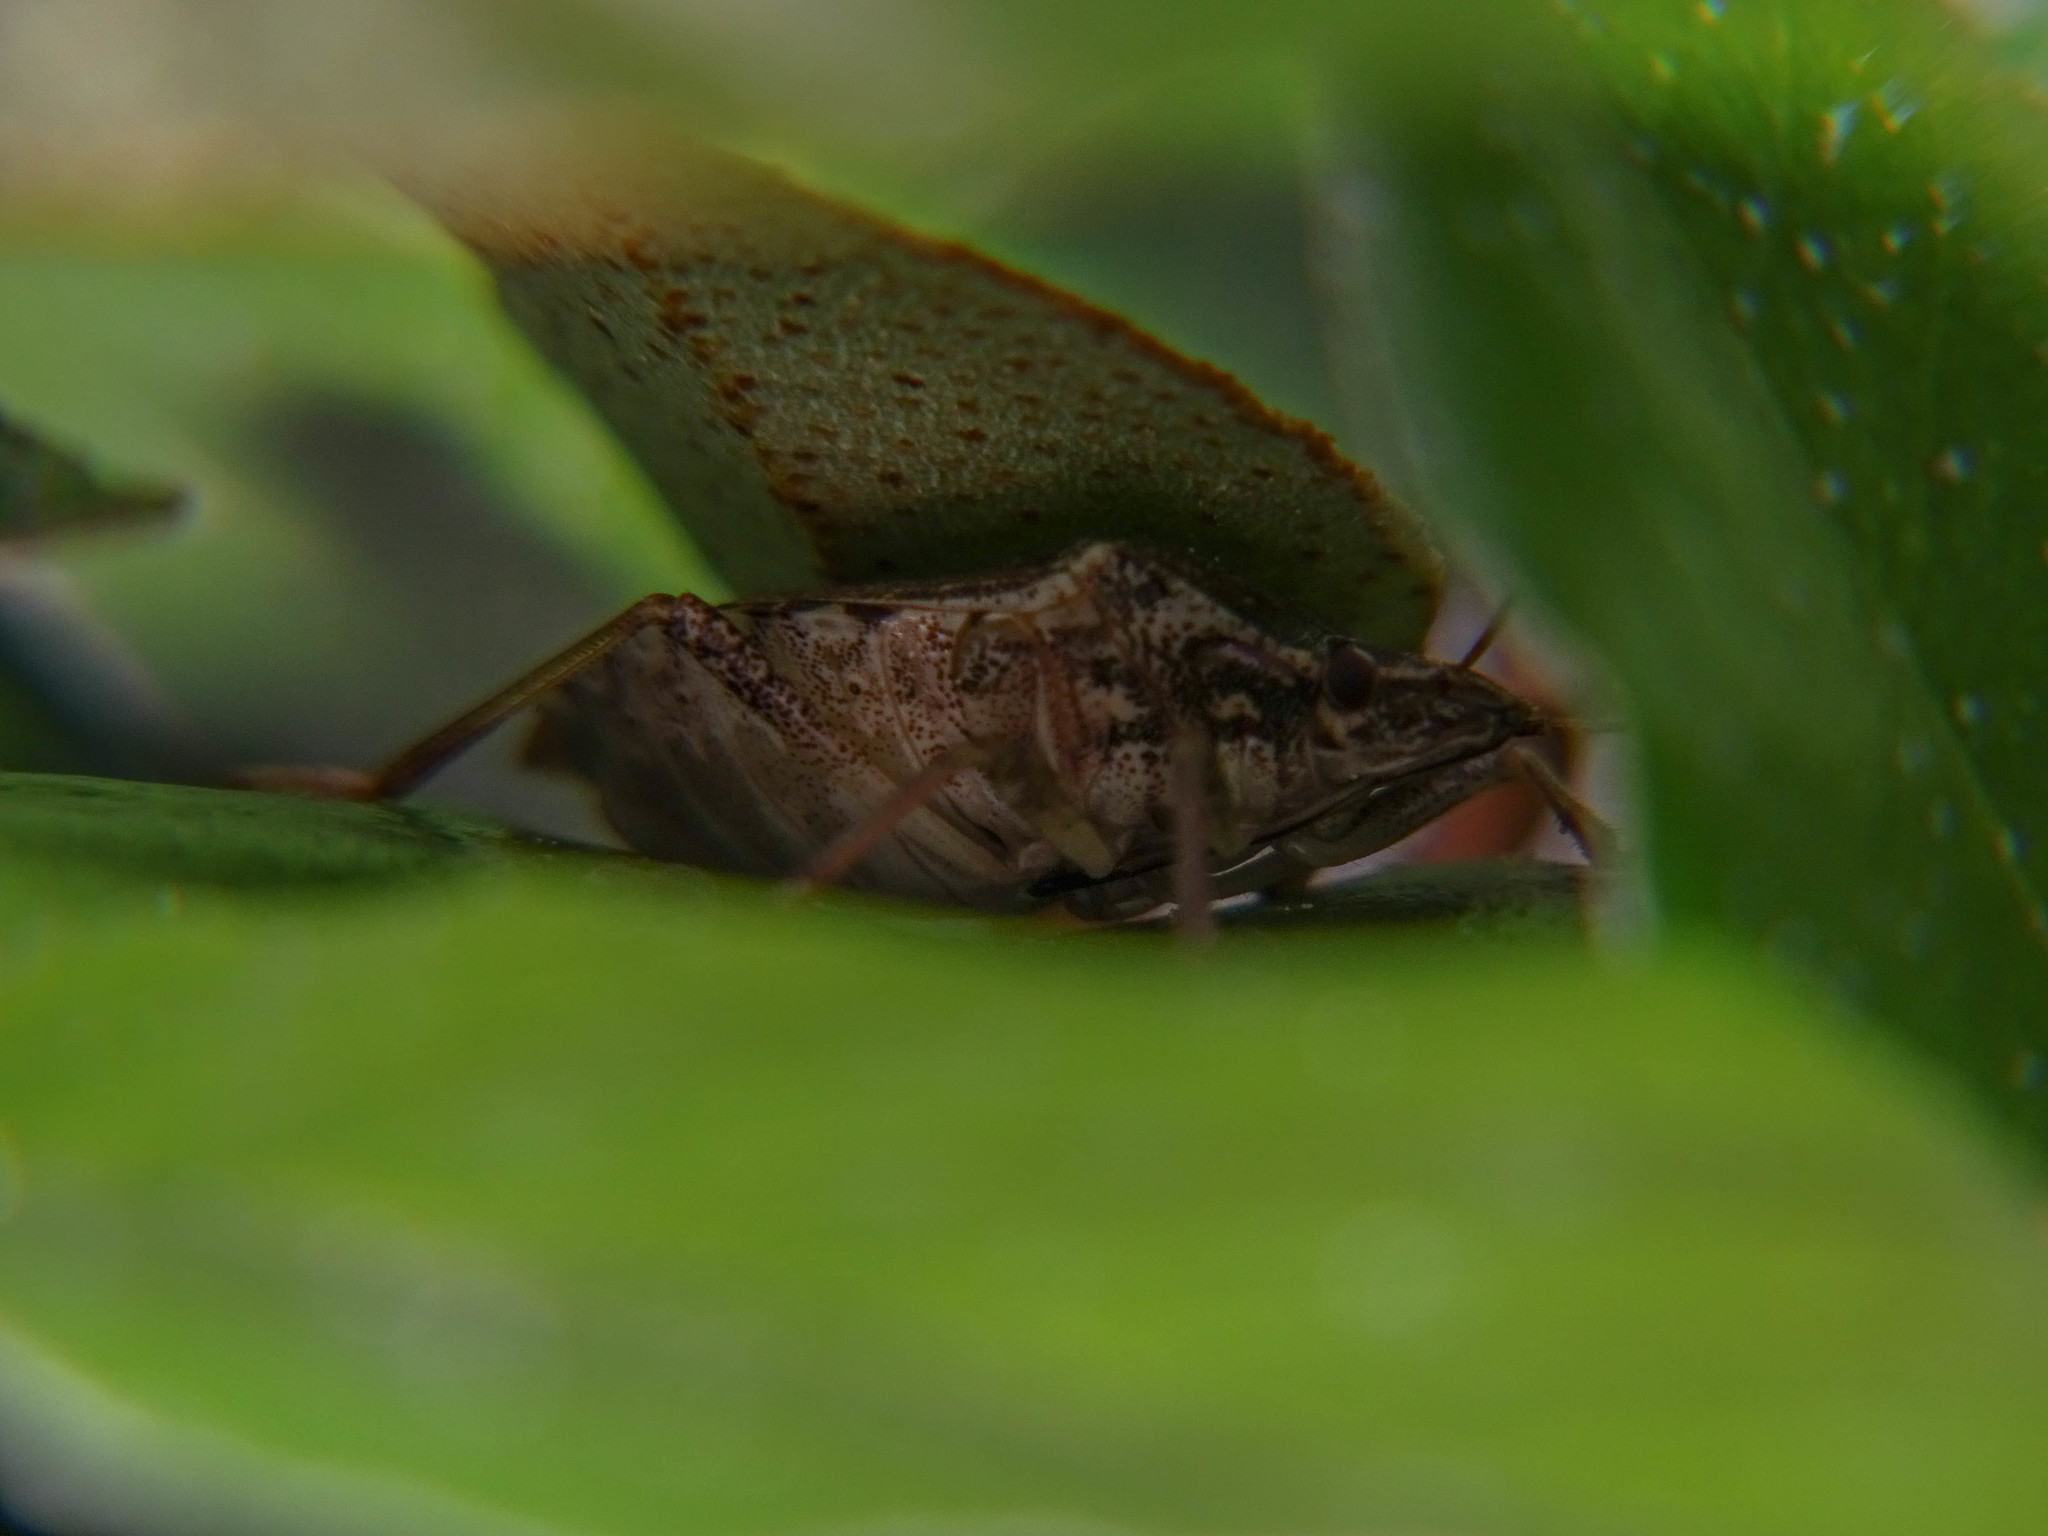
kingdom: Animalia
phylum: Arthropoda
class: Insecta
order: Hemiptera
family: Pentatomidae
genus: Halyomorpha
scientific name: Halyomorpha halys
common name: Brown marmorated stink bug
